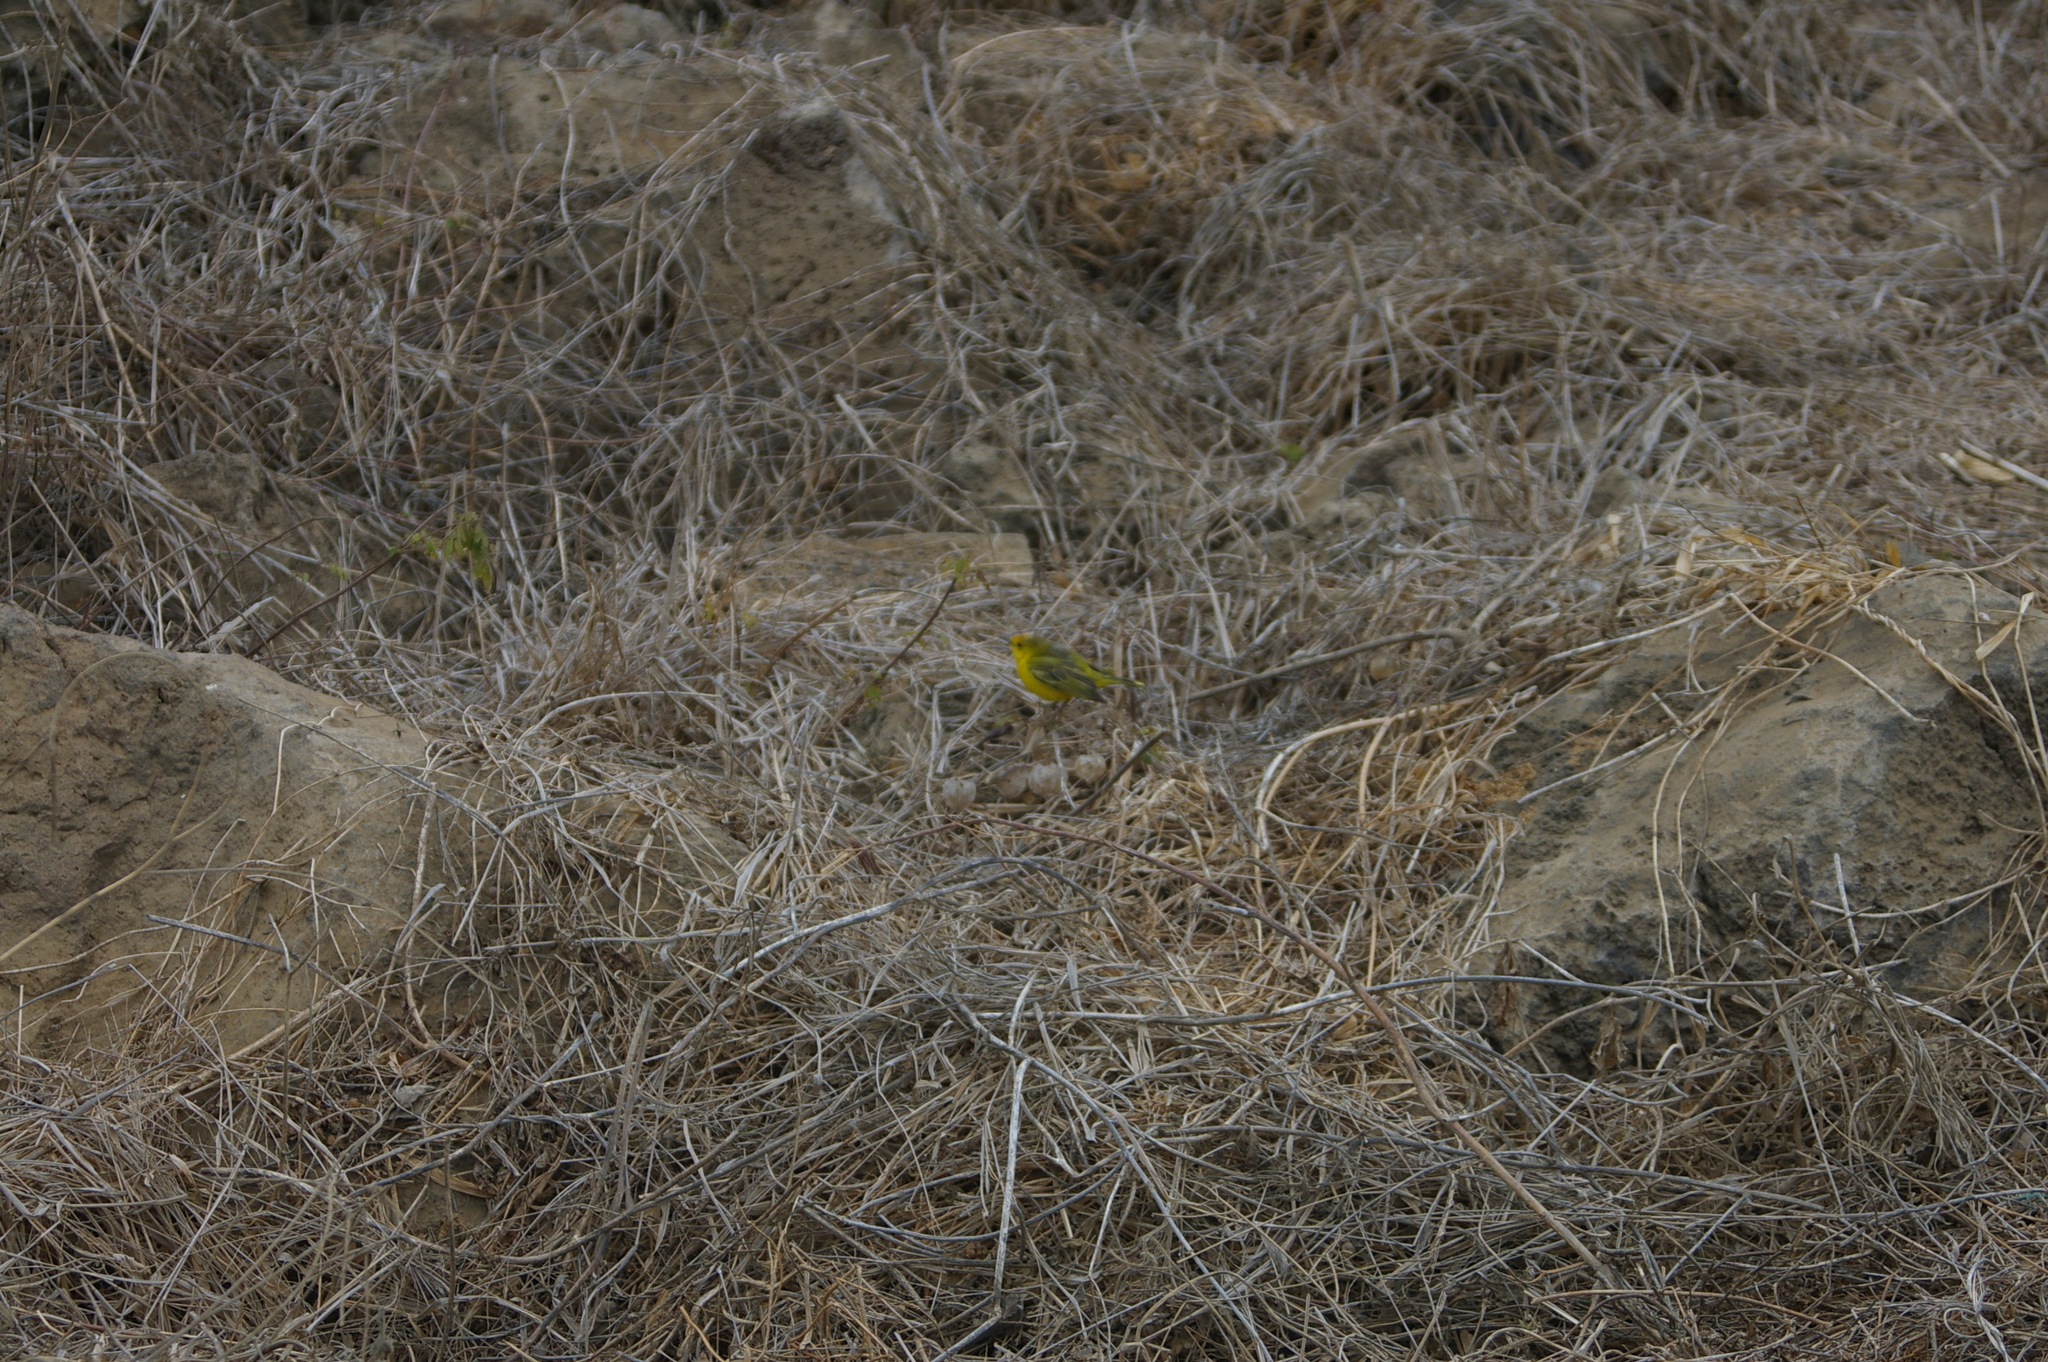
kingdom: Animalia
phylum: Chordata
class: Aves
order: Passeriformes
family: Parulidae
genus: Setophaga
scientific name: Setophaga petechia
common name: Yellow warbler
